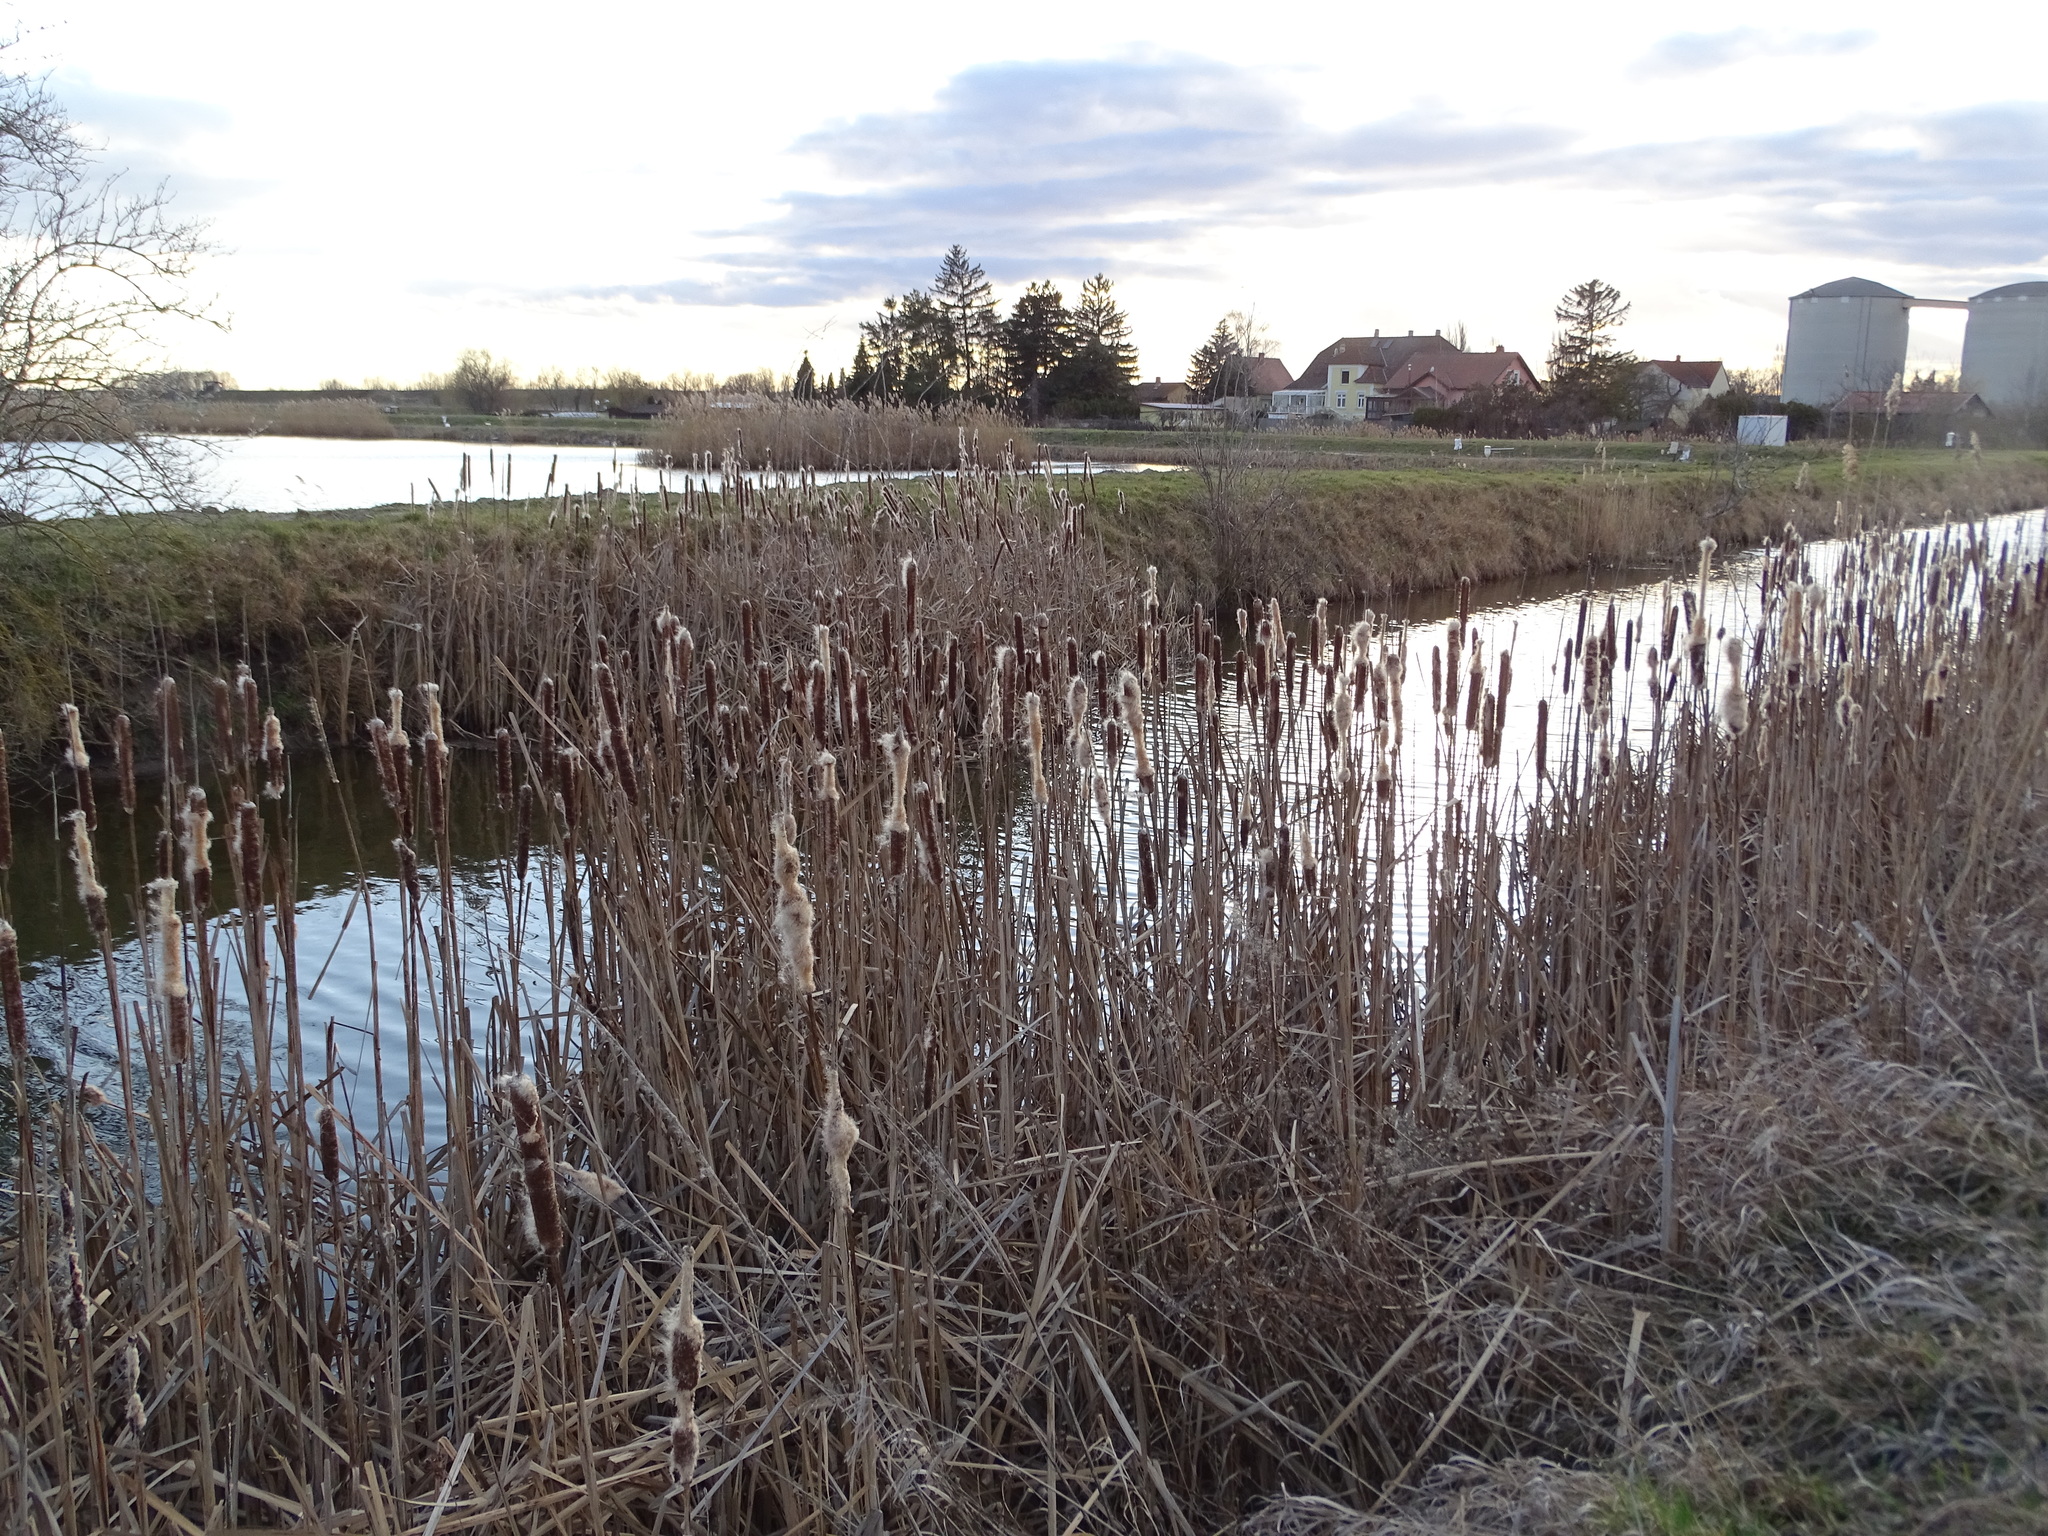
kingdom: Plantae
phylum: Tracheophyta
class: Liliopsida
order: Poales
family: Typhaceae
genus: Typha
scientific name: Typha latifolia
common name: Broadleaf cattail
